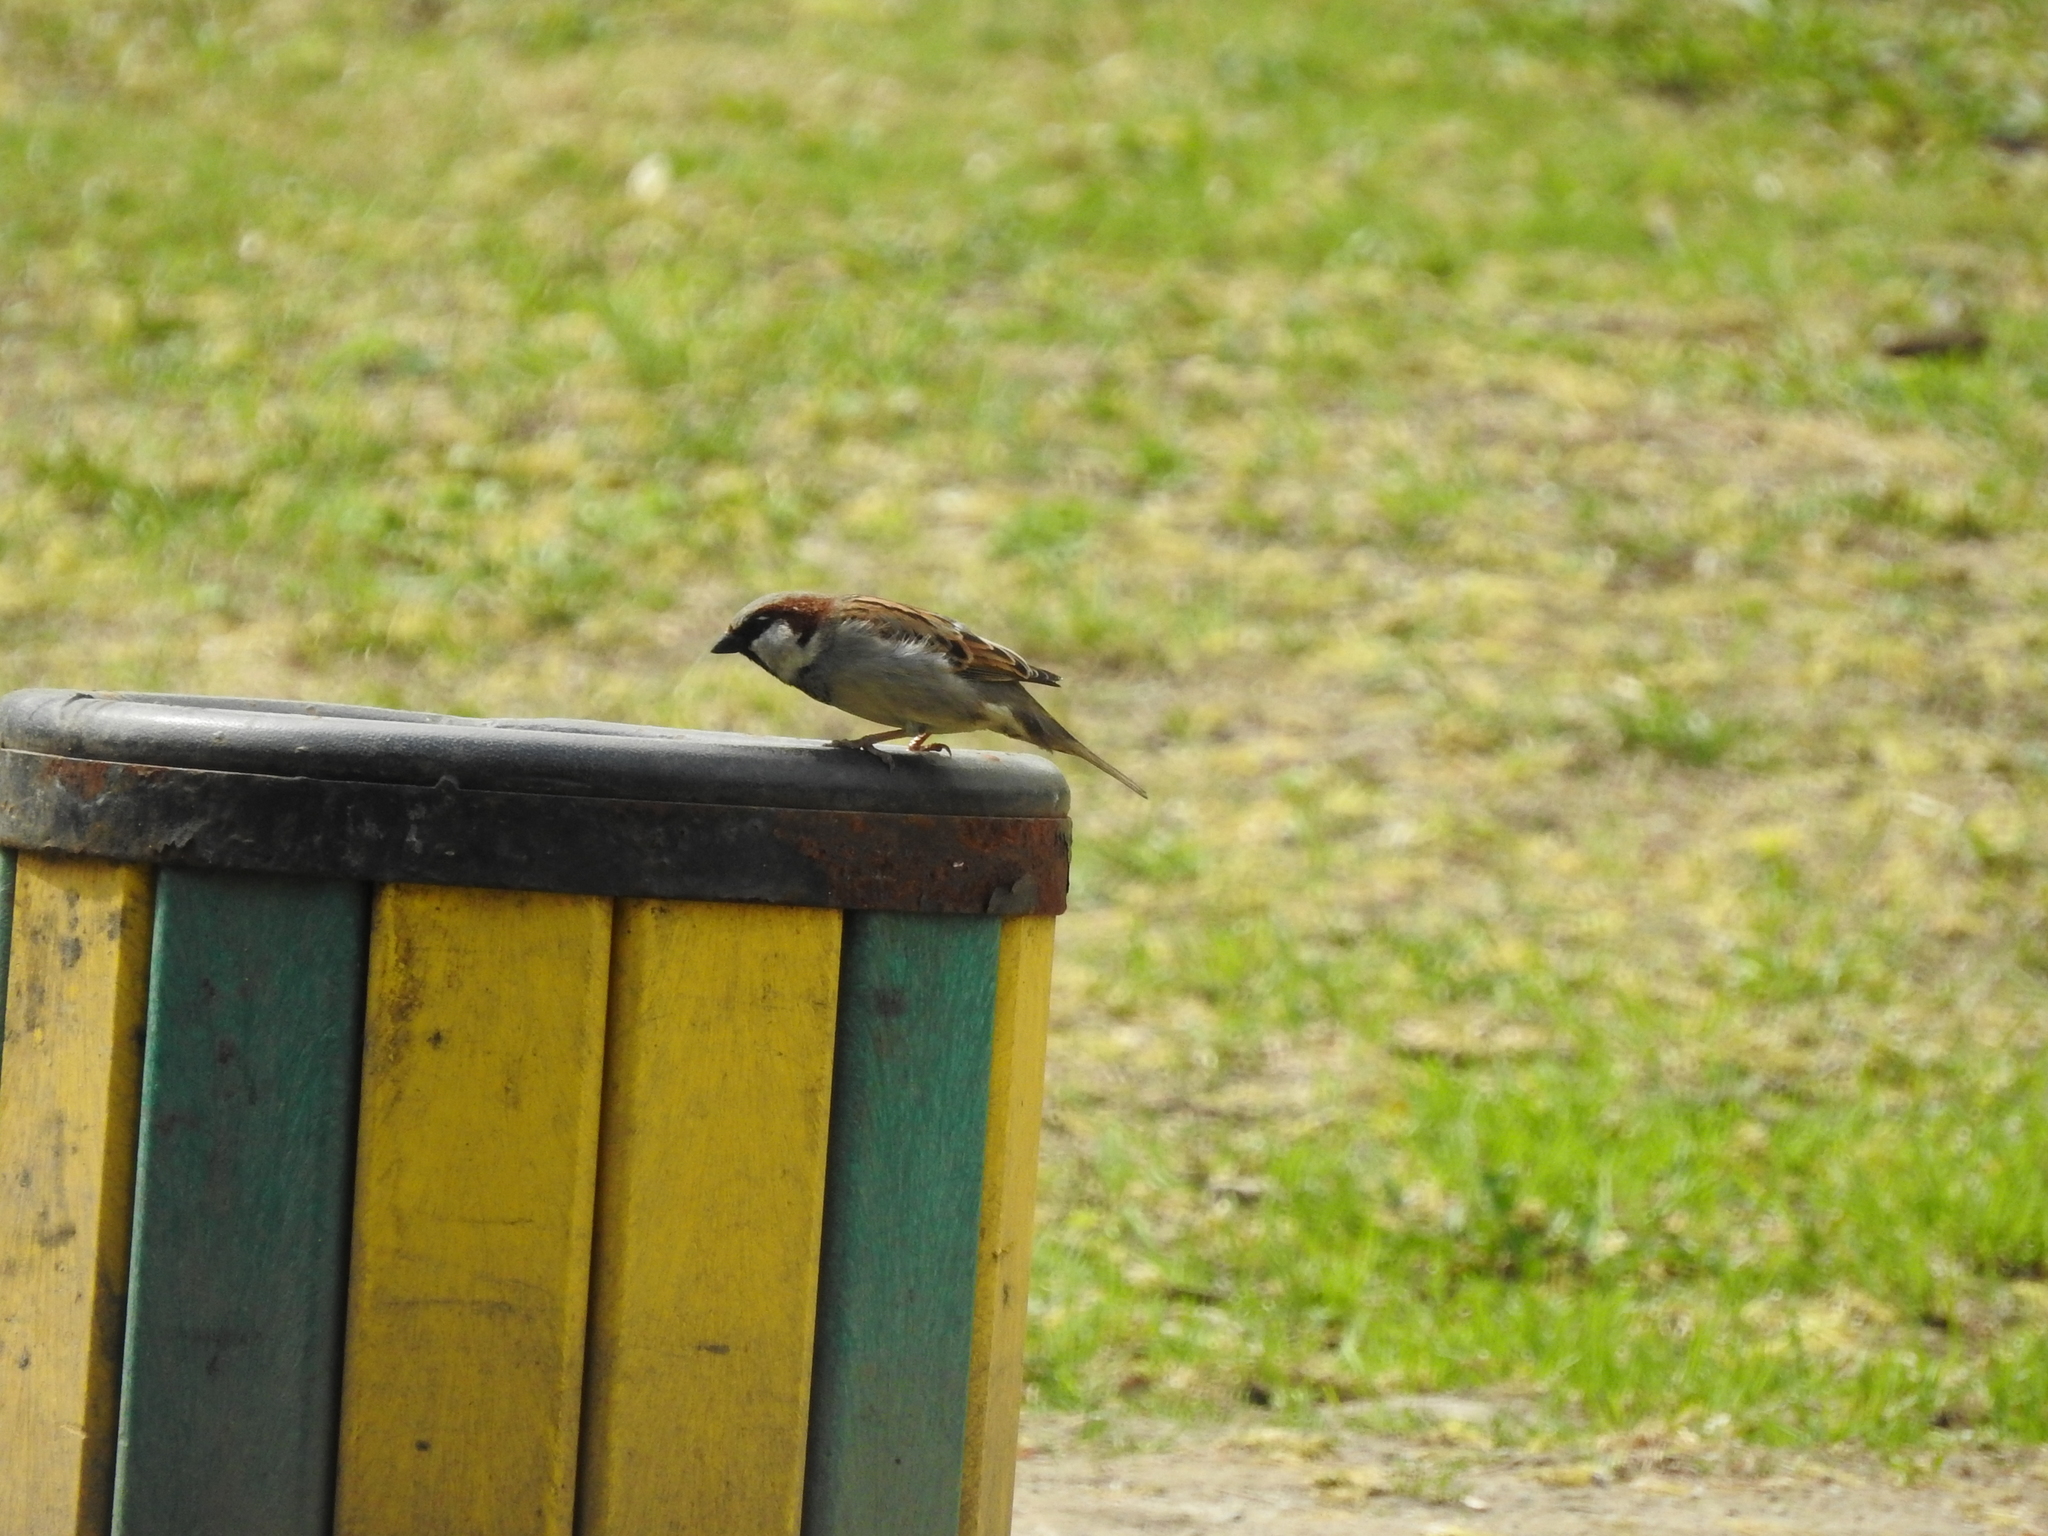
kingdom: Animalia
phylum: Chordata
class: Aves
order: Passeriformes
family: Passeridae
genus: Passer
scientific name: Passer domesticus
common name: House sparrow
